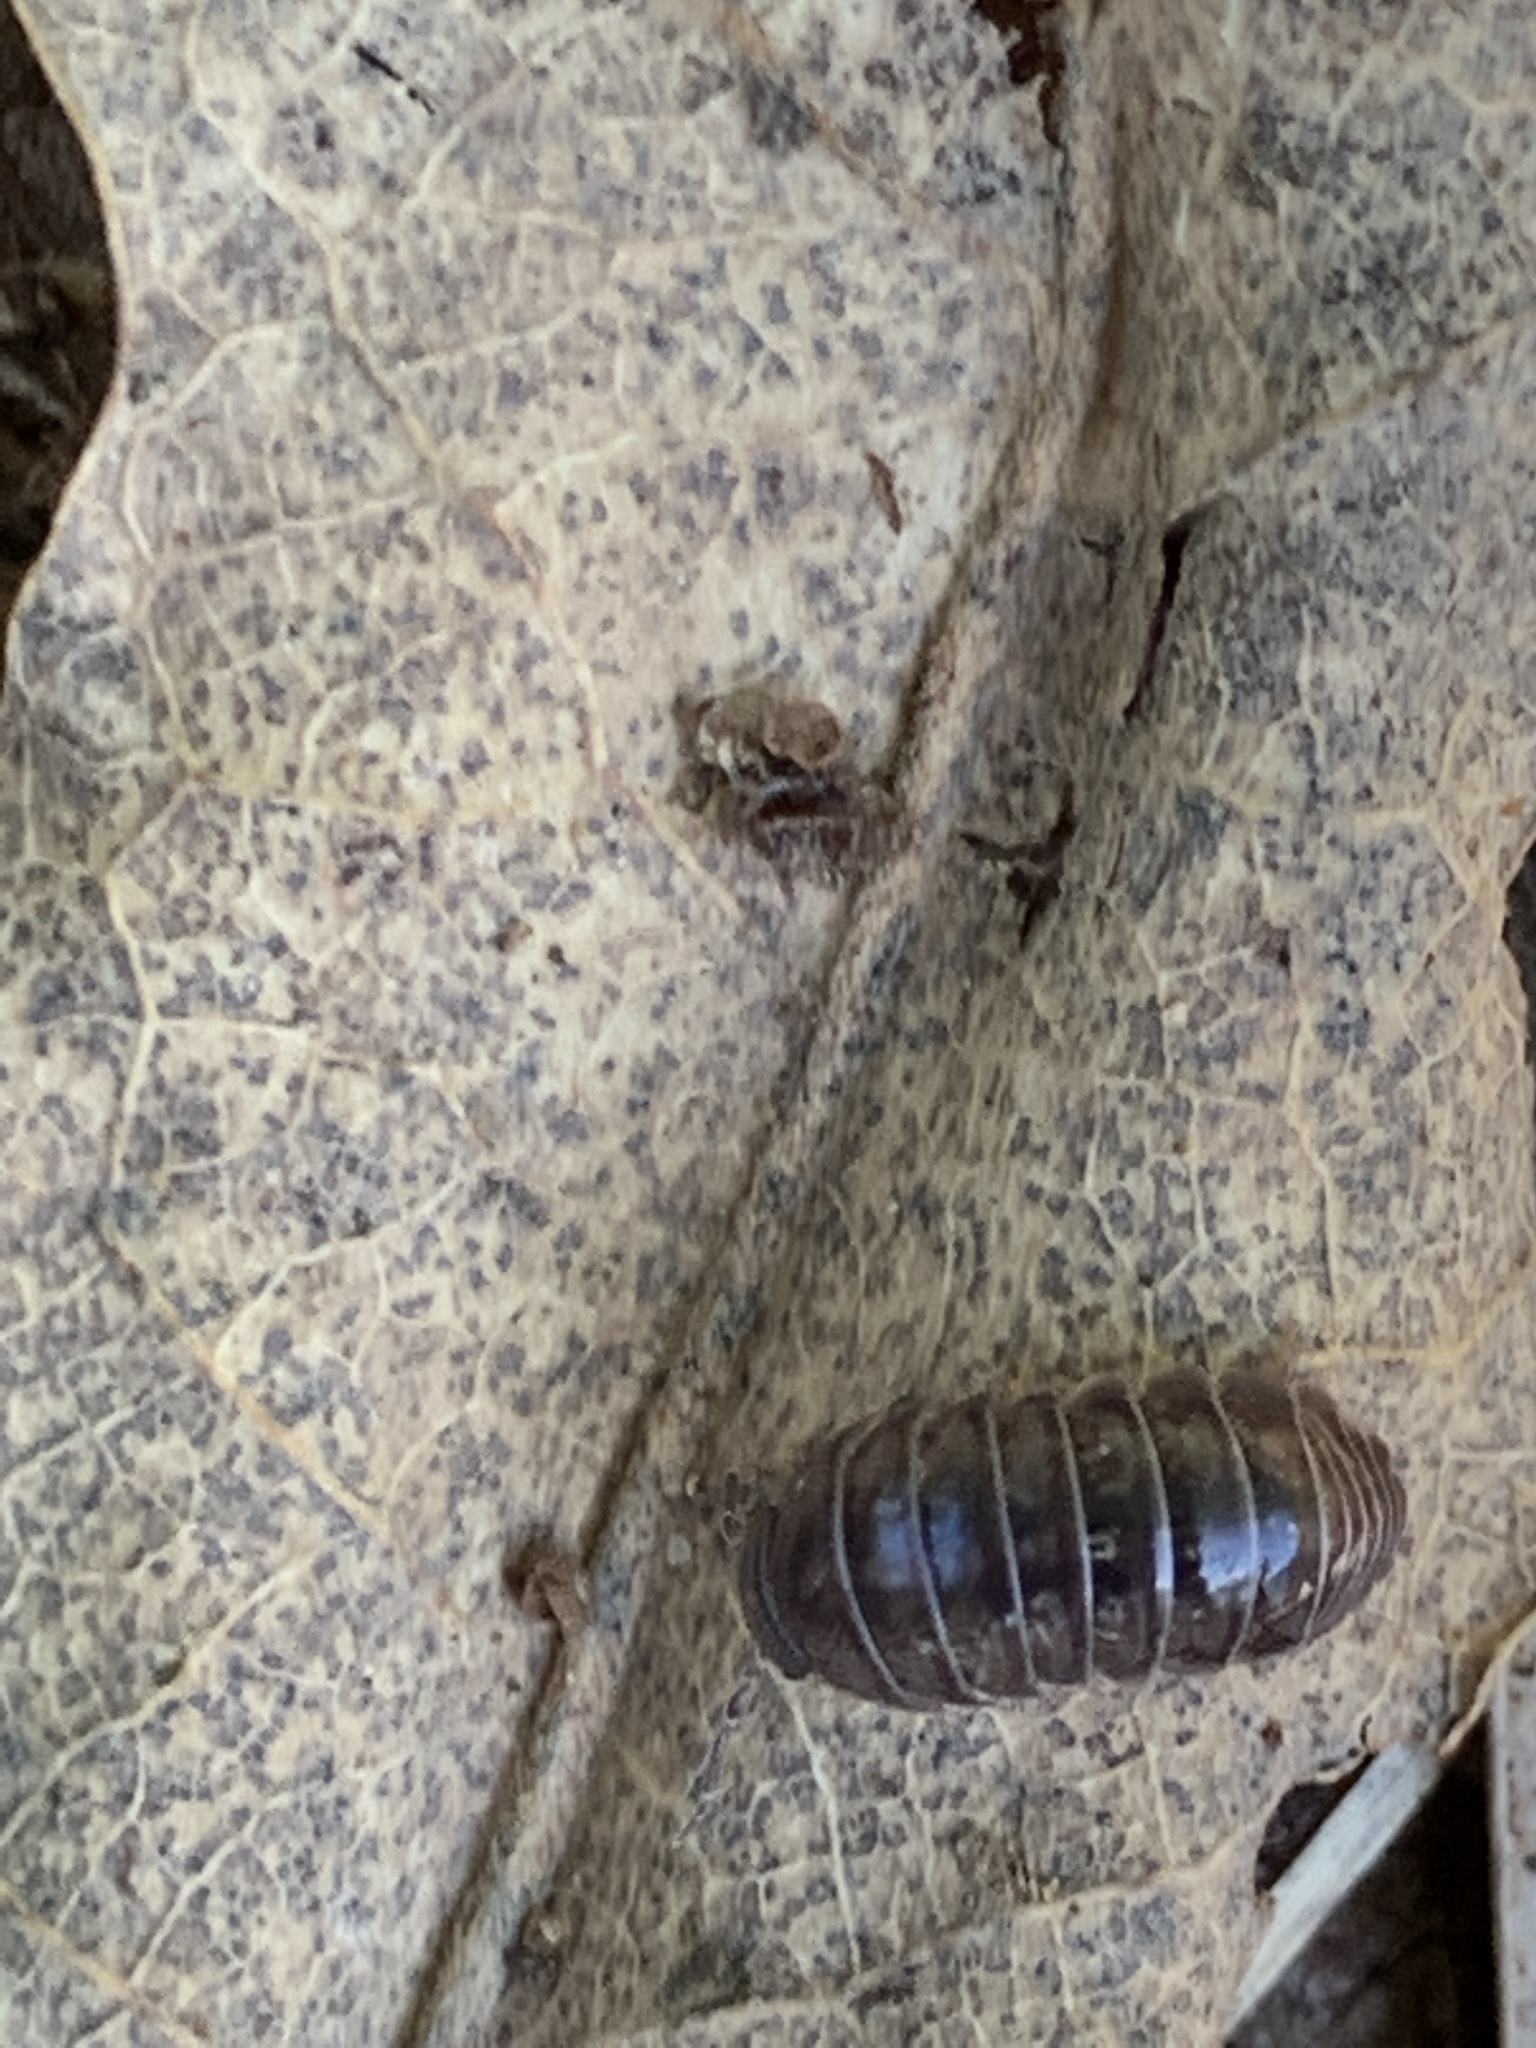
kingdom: Animalia
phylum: Arthropoda
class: Malacostraca
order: Isopoda
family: Armadillidiidae
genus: Armadillidium
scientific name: Armadillidium vulgare
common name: Common pill woodlouse
